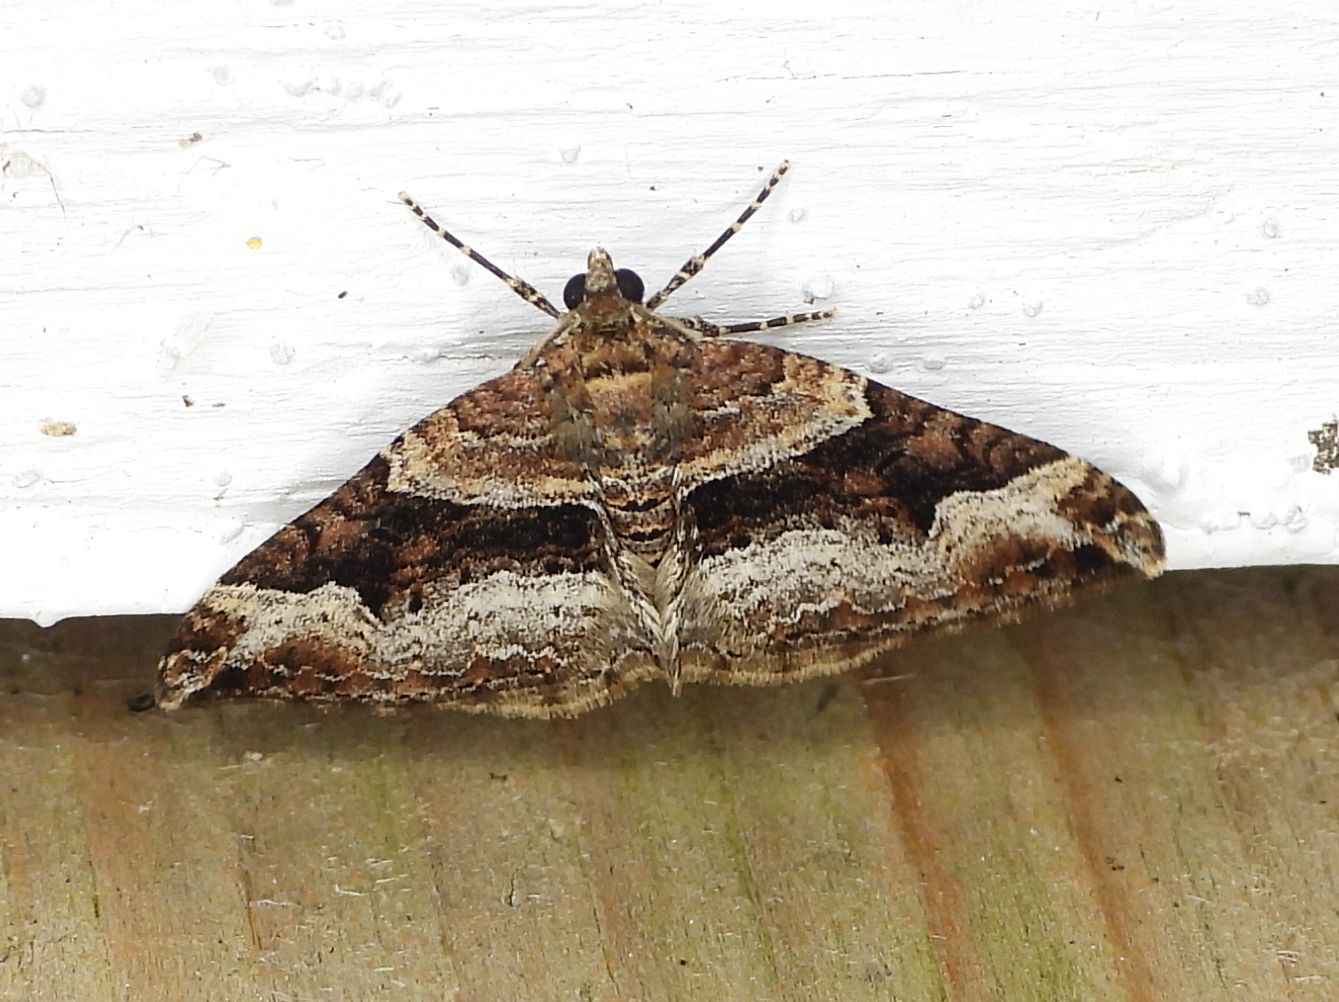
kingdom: Animalia
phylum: Arthropoda
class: Insecta
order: Lepidoptera
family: Geometridae
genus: Xanthorhoe
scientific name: Xanthorhoe lacustrata
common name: Toothed brown carpet
